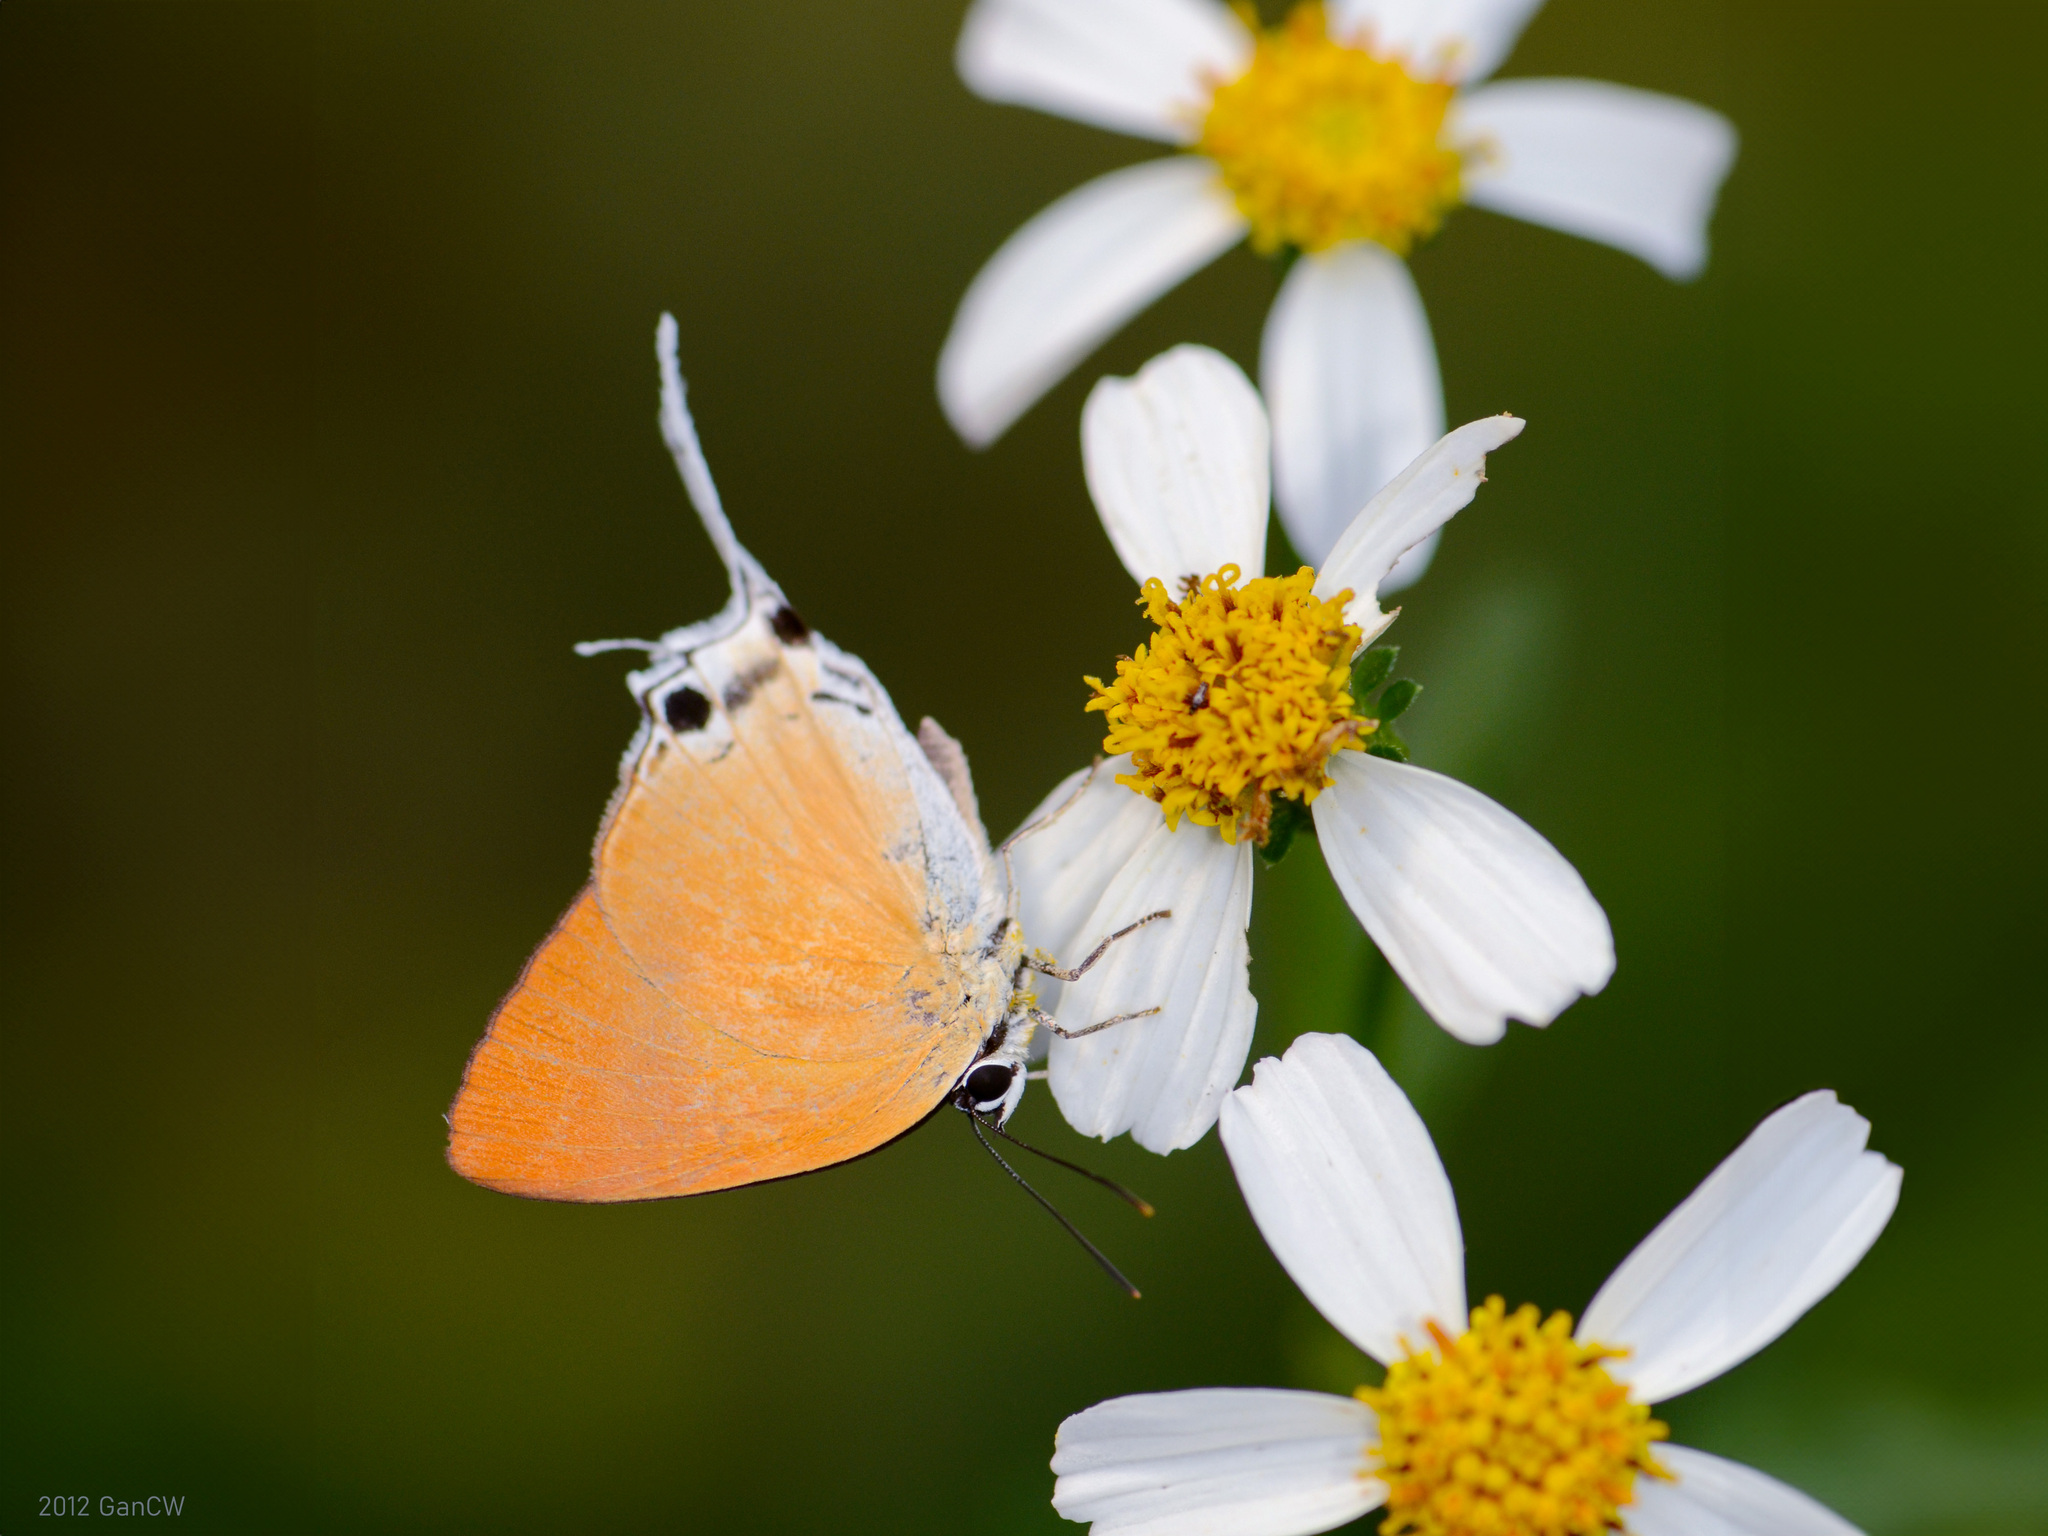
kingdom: Animalia
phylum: Arthropoda
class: Insecta
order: Lepidoptera
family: Lycaenidae
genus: Manto
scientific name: Manto hypoleuca
